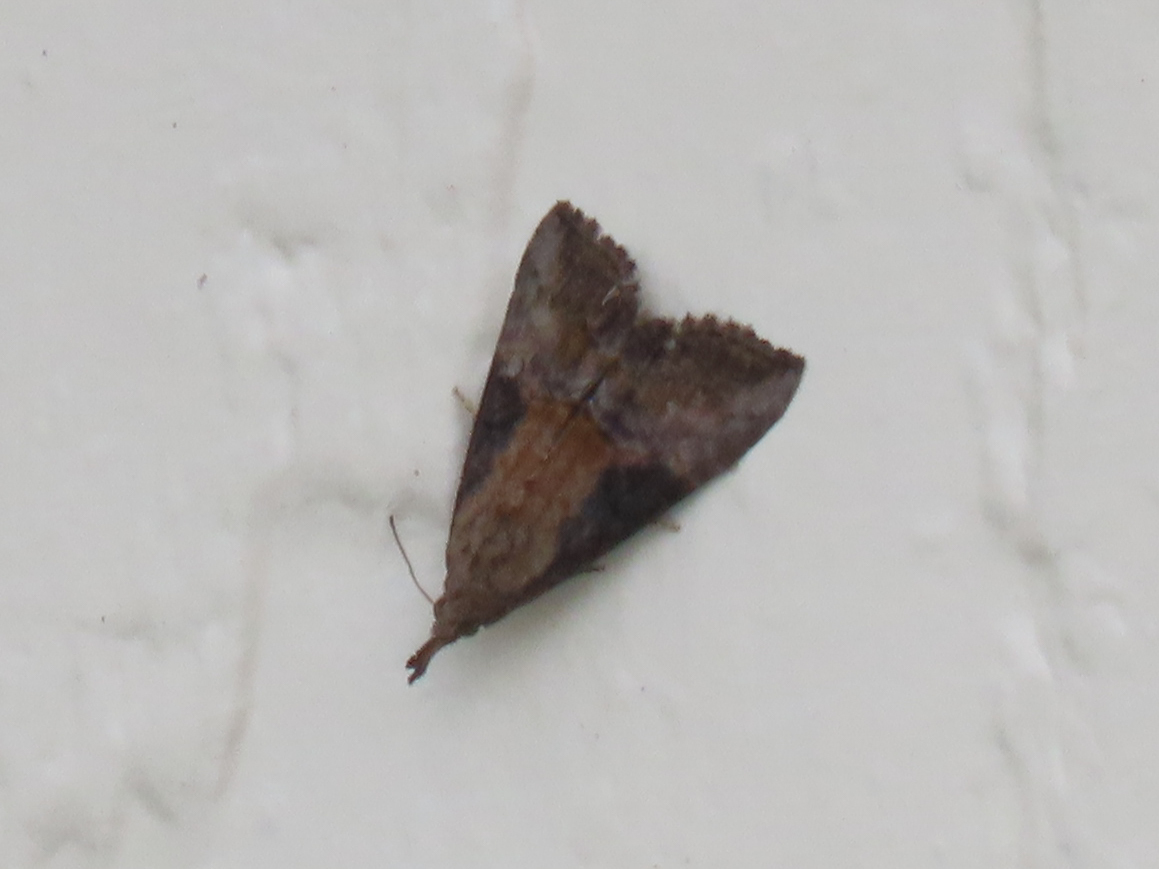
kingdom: Animalia
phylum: Arthropoda
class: Insecta
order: Lepidoptera
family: Erebidae
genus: Hypena
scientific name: Hypena scabra
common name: Green cloverworm
